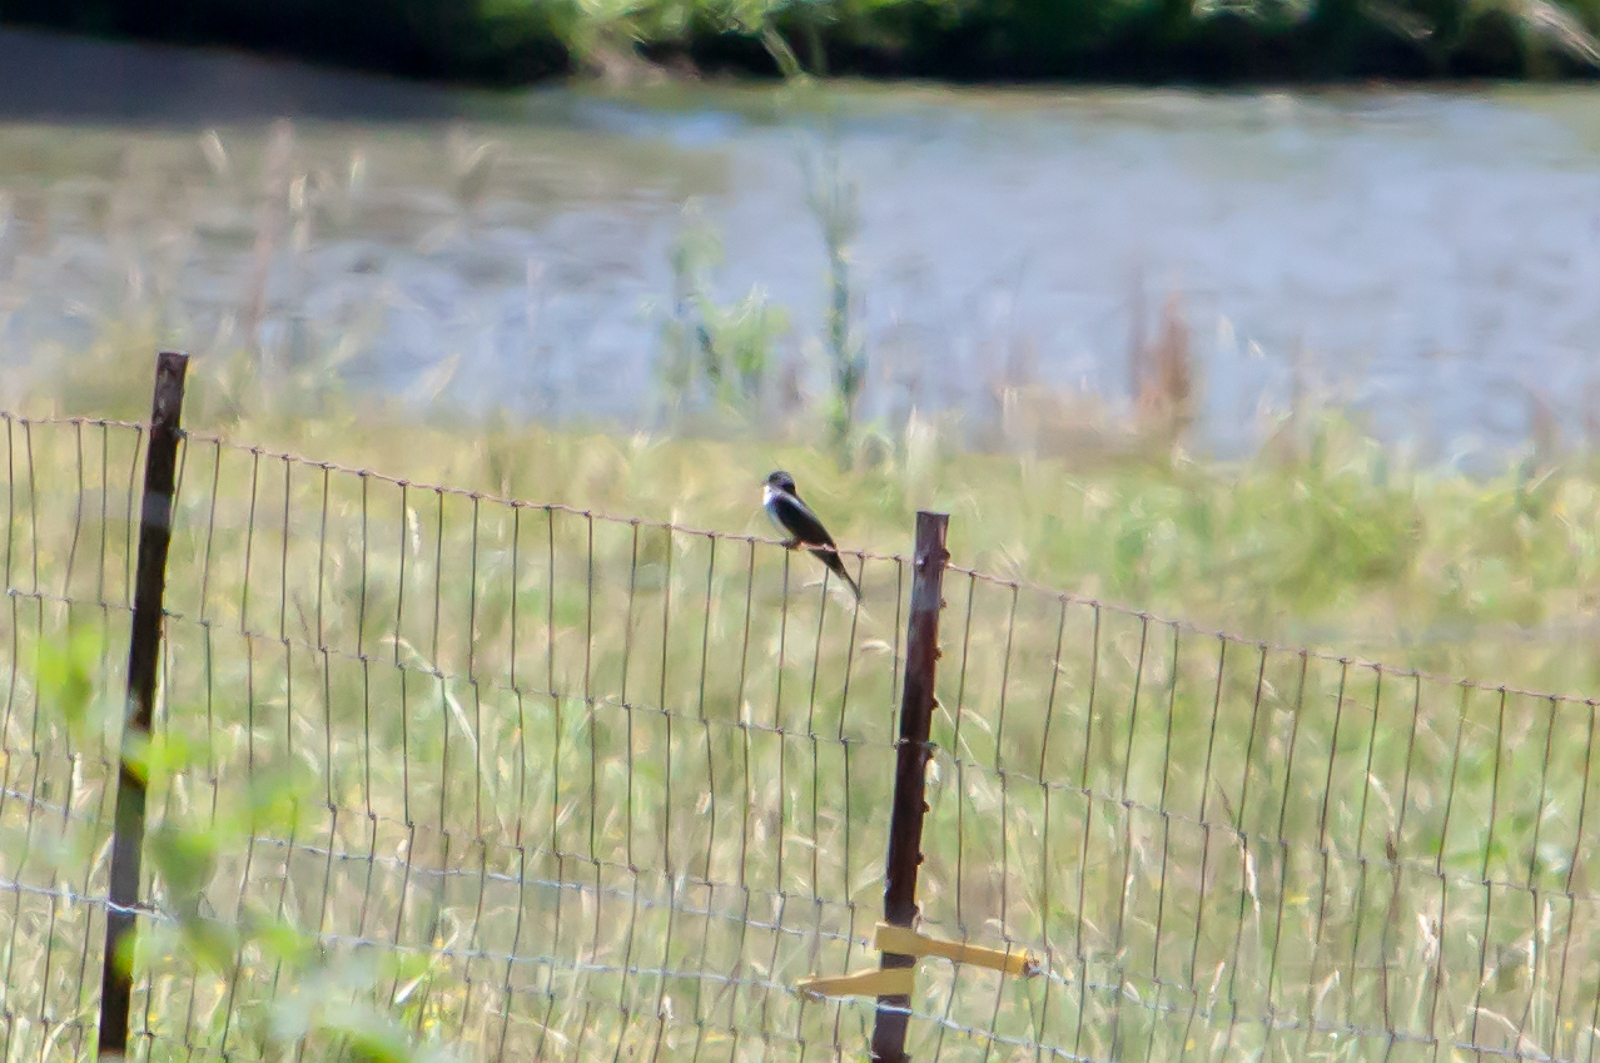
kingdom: Animalia
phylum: Chordata
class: Aves
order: Passeriformes
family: Tyrannidae
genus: Tyrannus
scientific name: Tyrannus tyrannus
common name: Eastern kingbird
